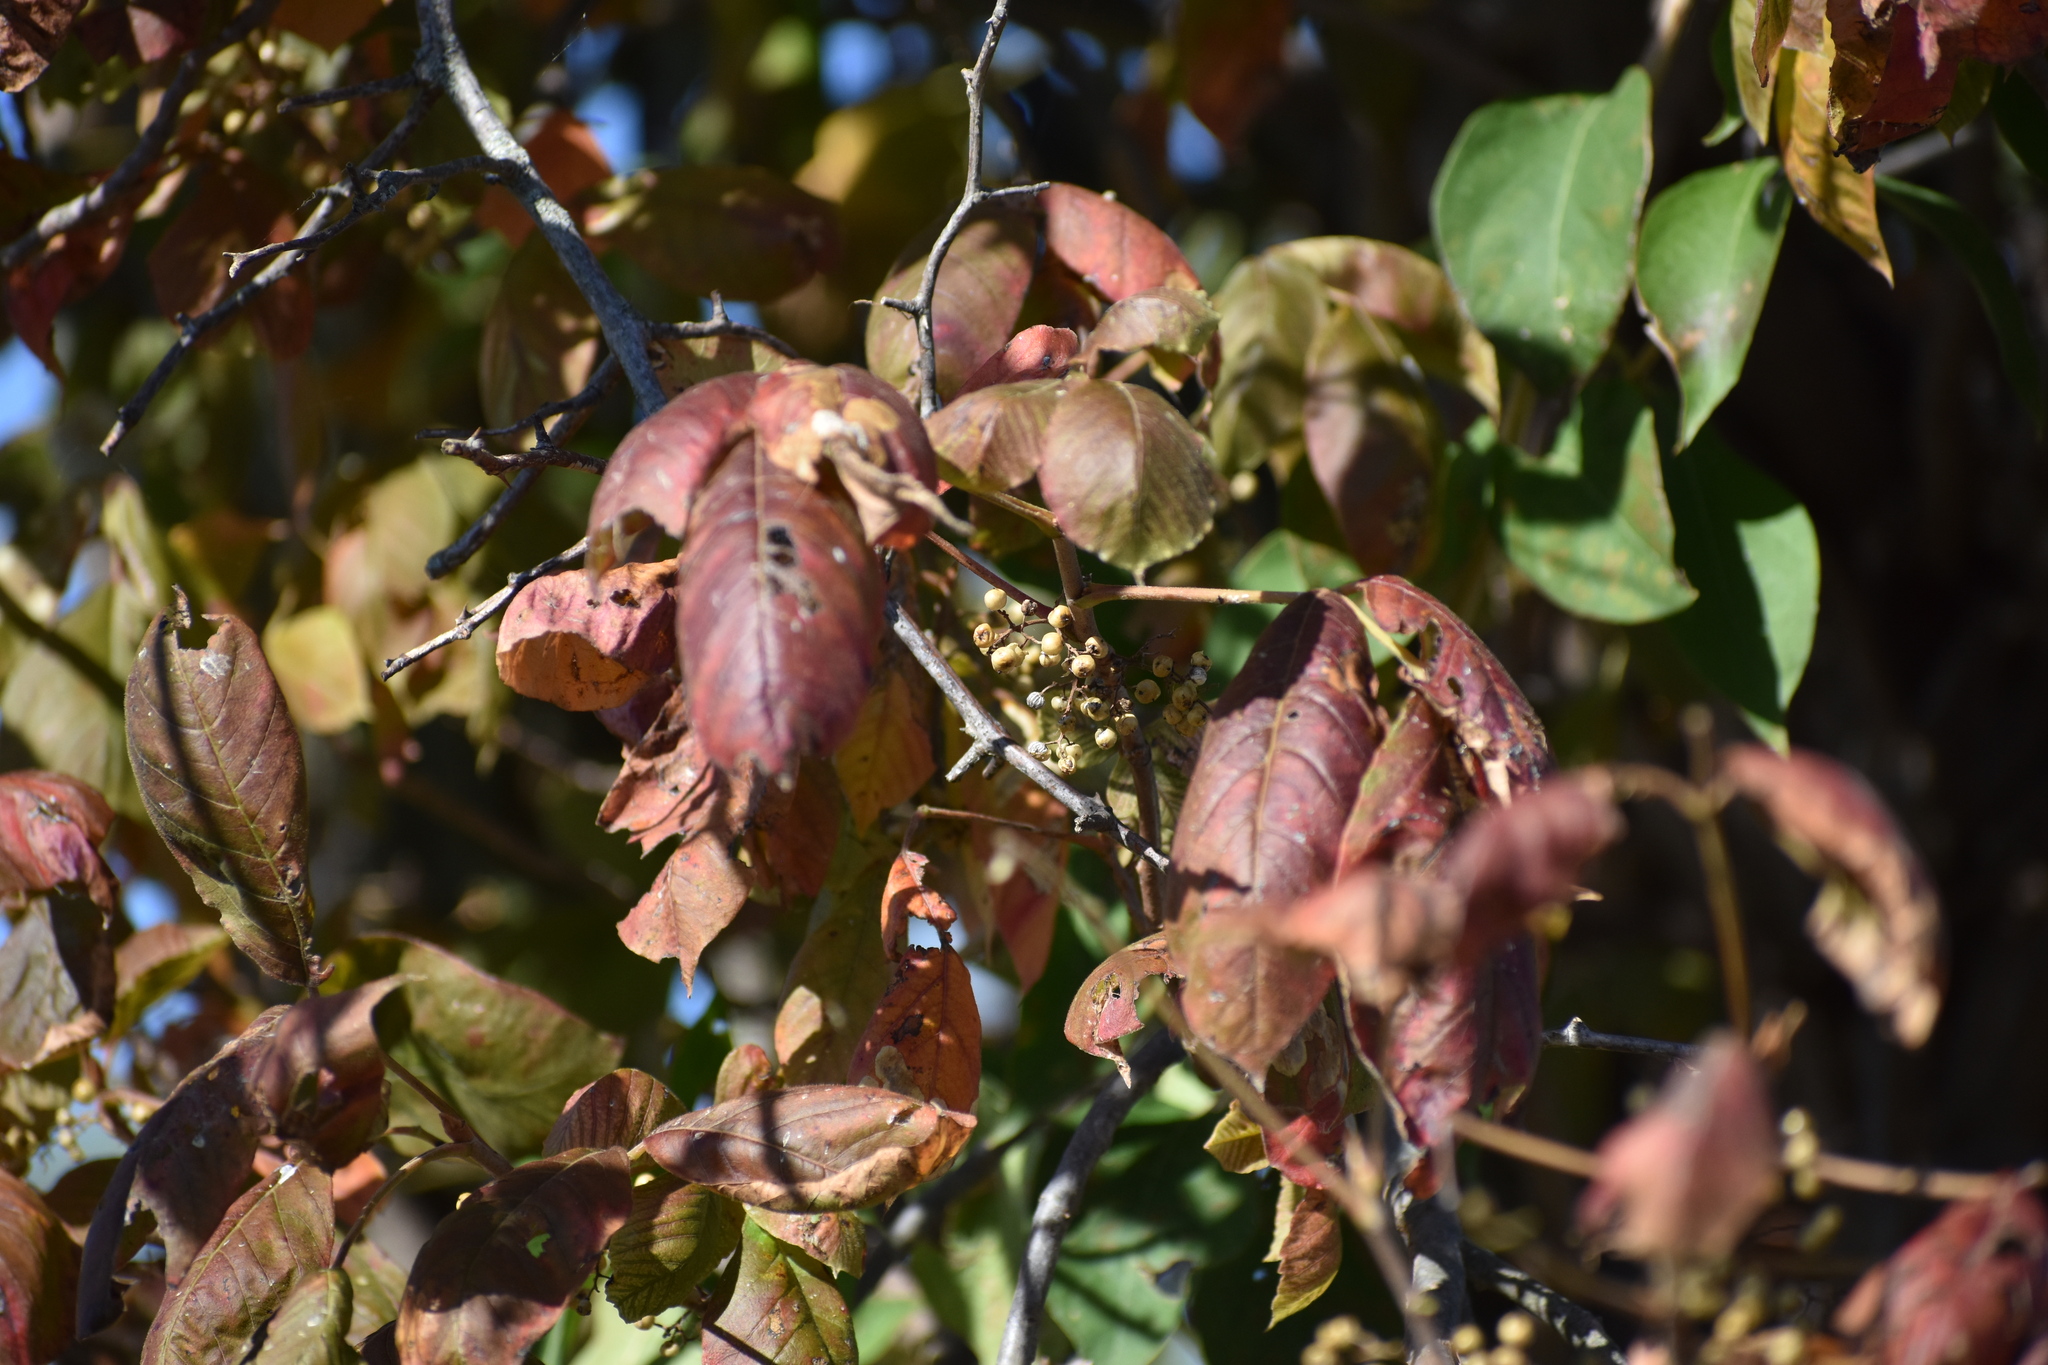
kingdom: Plantae
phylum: Tracheophyta
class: Magnoliopsida
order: Sapindales
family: Anacardiaceae
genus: Toxicodendron
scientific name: Toxicodendron radicans
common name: Poison ivy
